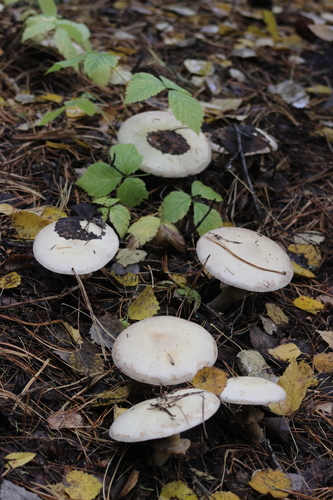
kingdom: Fungi
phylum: Basidiomycota
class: Agaricomycetes
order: Agaricales
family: Agaricaceae
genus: Agaricus
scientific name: Agaricus sylvicola
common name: Wood mushroom
